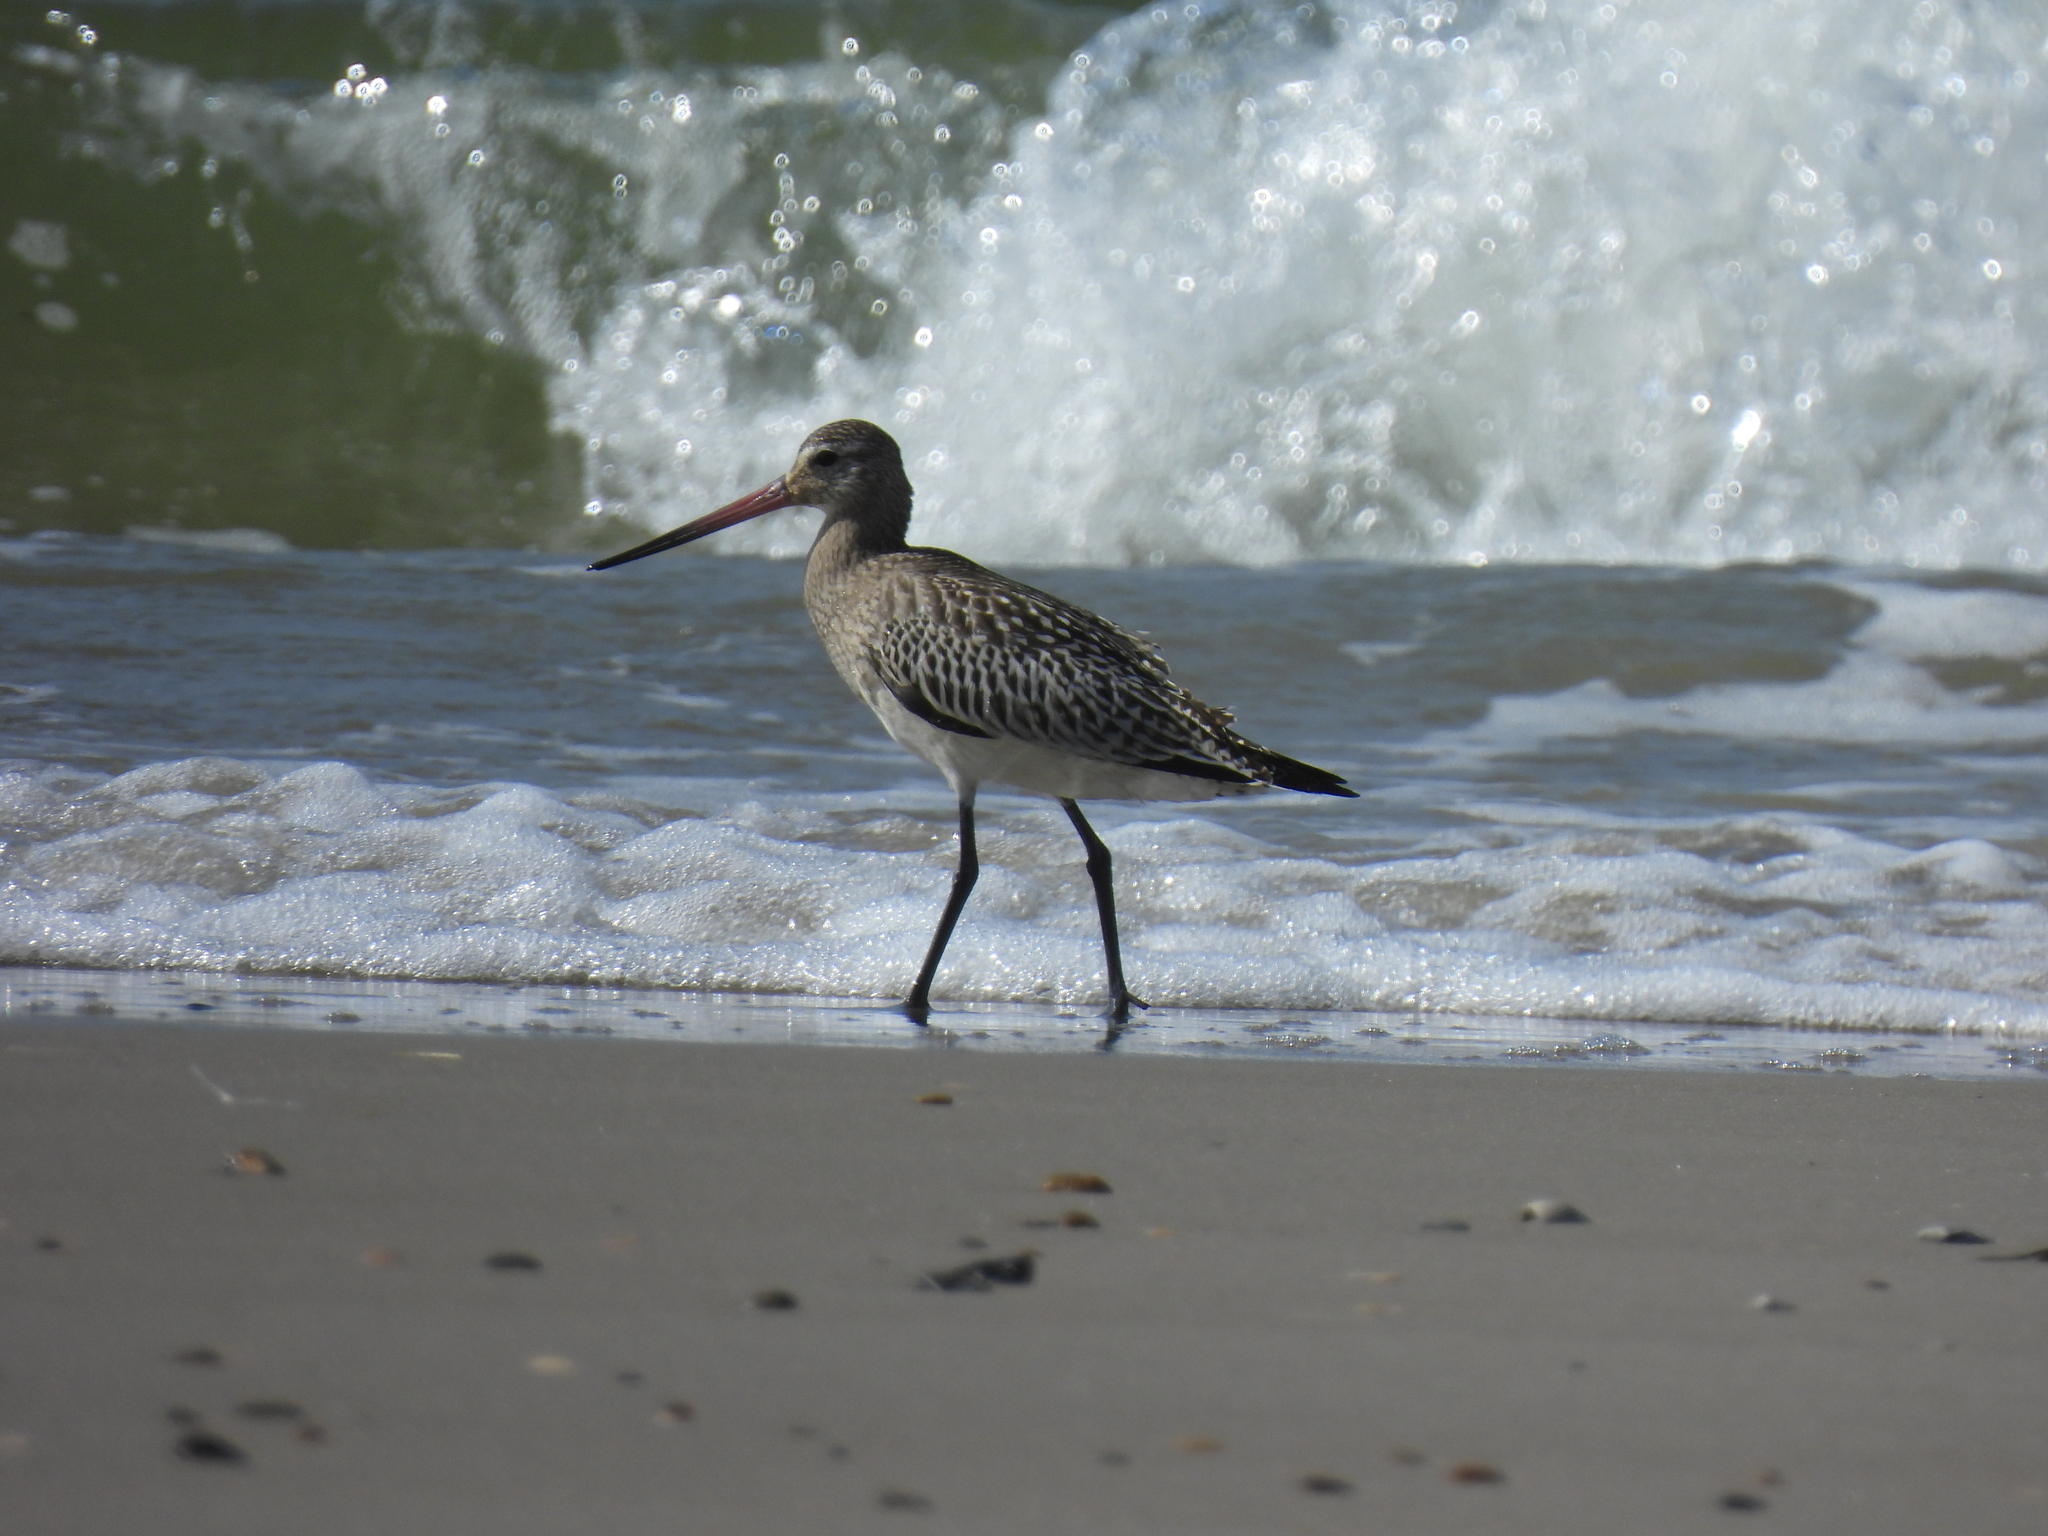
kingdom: Animalia
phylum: Chordata
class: Aves
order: Charadriiformes
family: Scolopacidae
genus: Limosa
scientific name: Limosa lapponica
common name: Bar-tailed godwit
